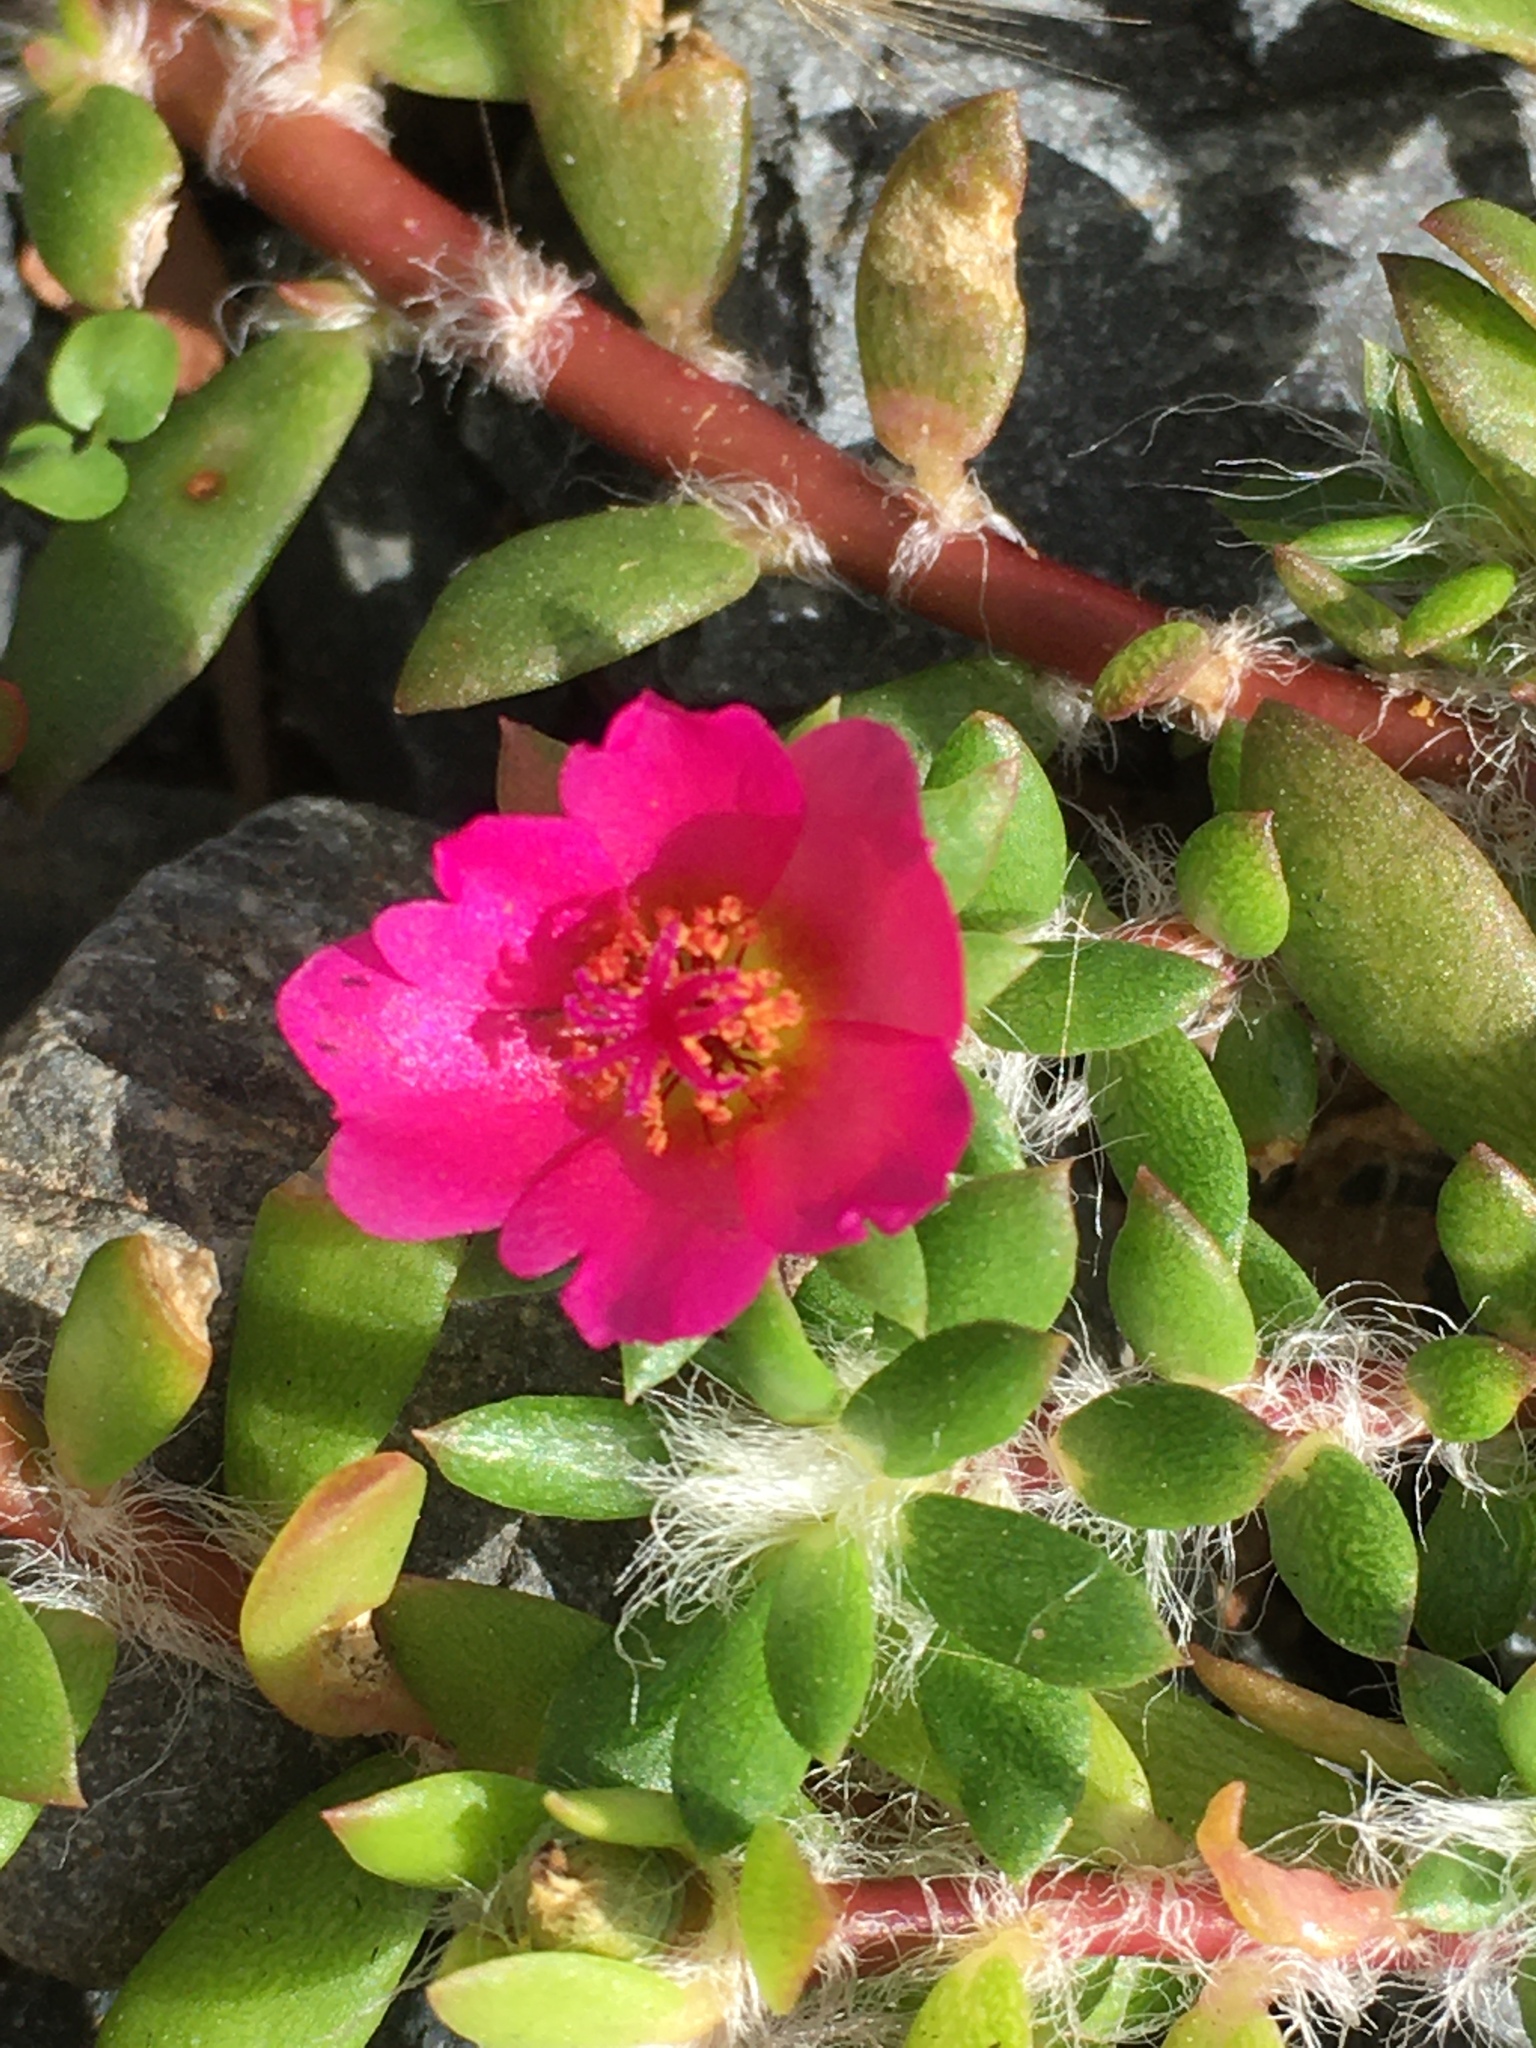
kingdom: Plantae
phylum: Tracheophyta
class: Magnoliopsida
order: Caryophyllales
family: Portulacaceae
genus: Portulaca
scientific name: Portulaca amilis
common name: Paraguayan purslane
